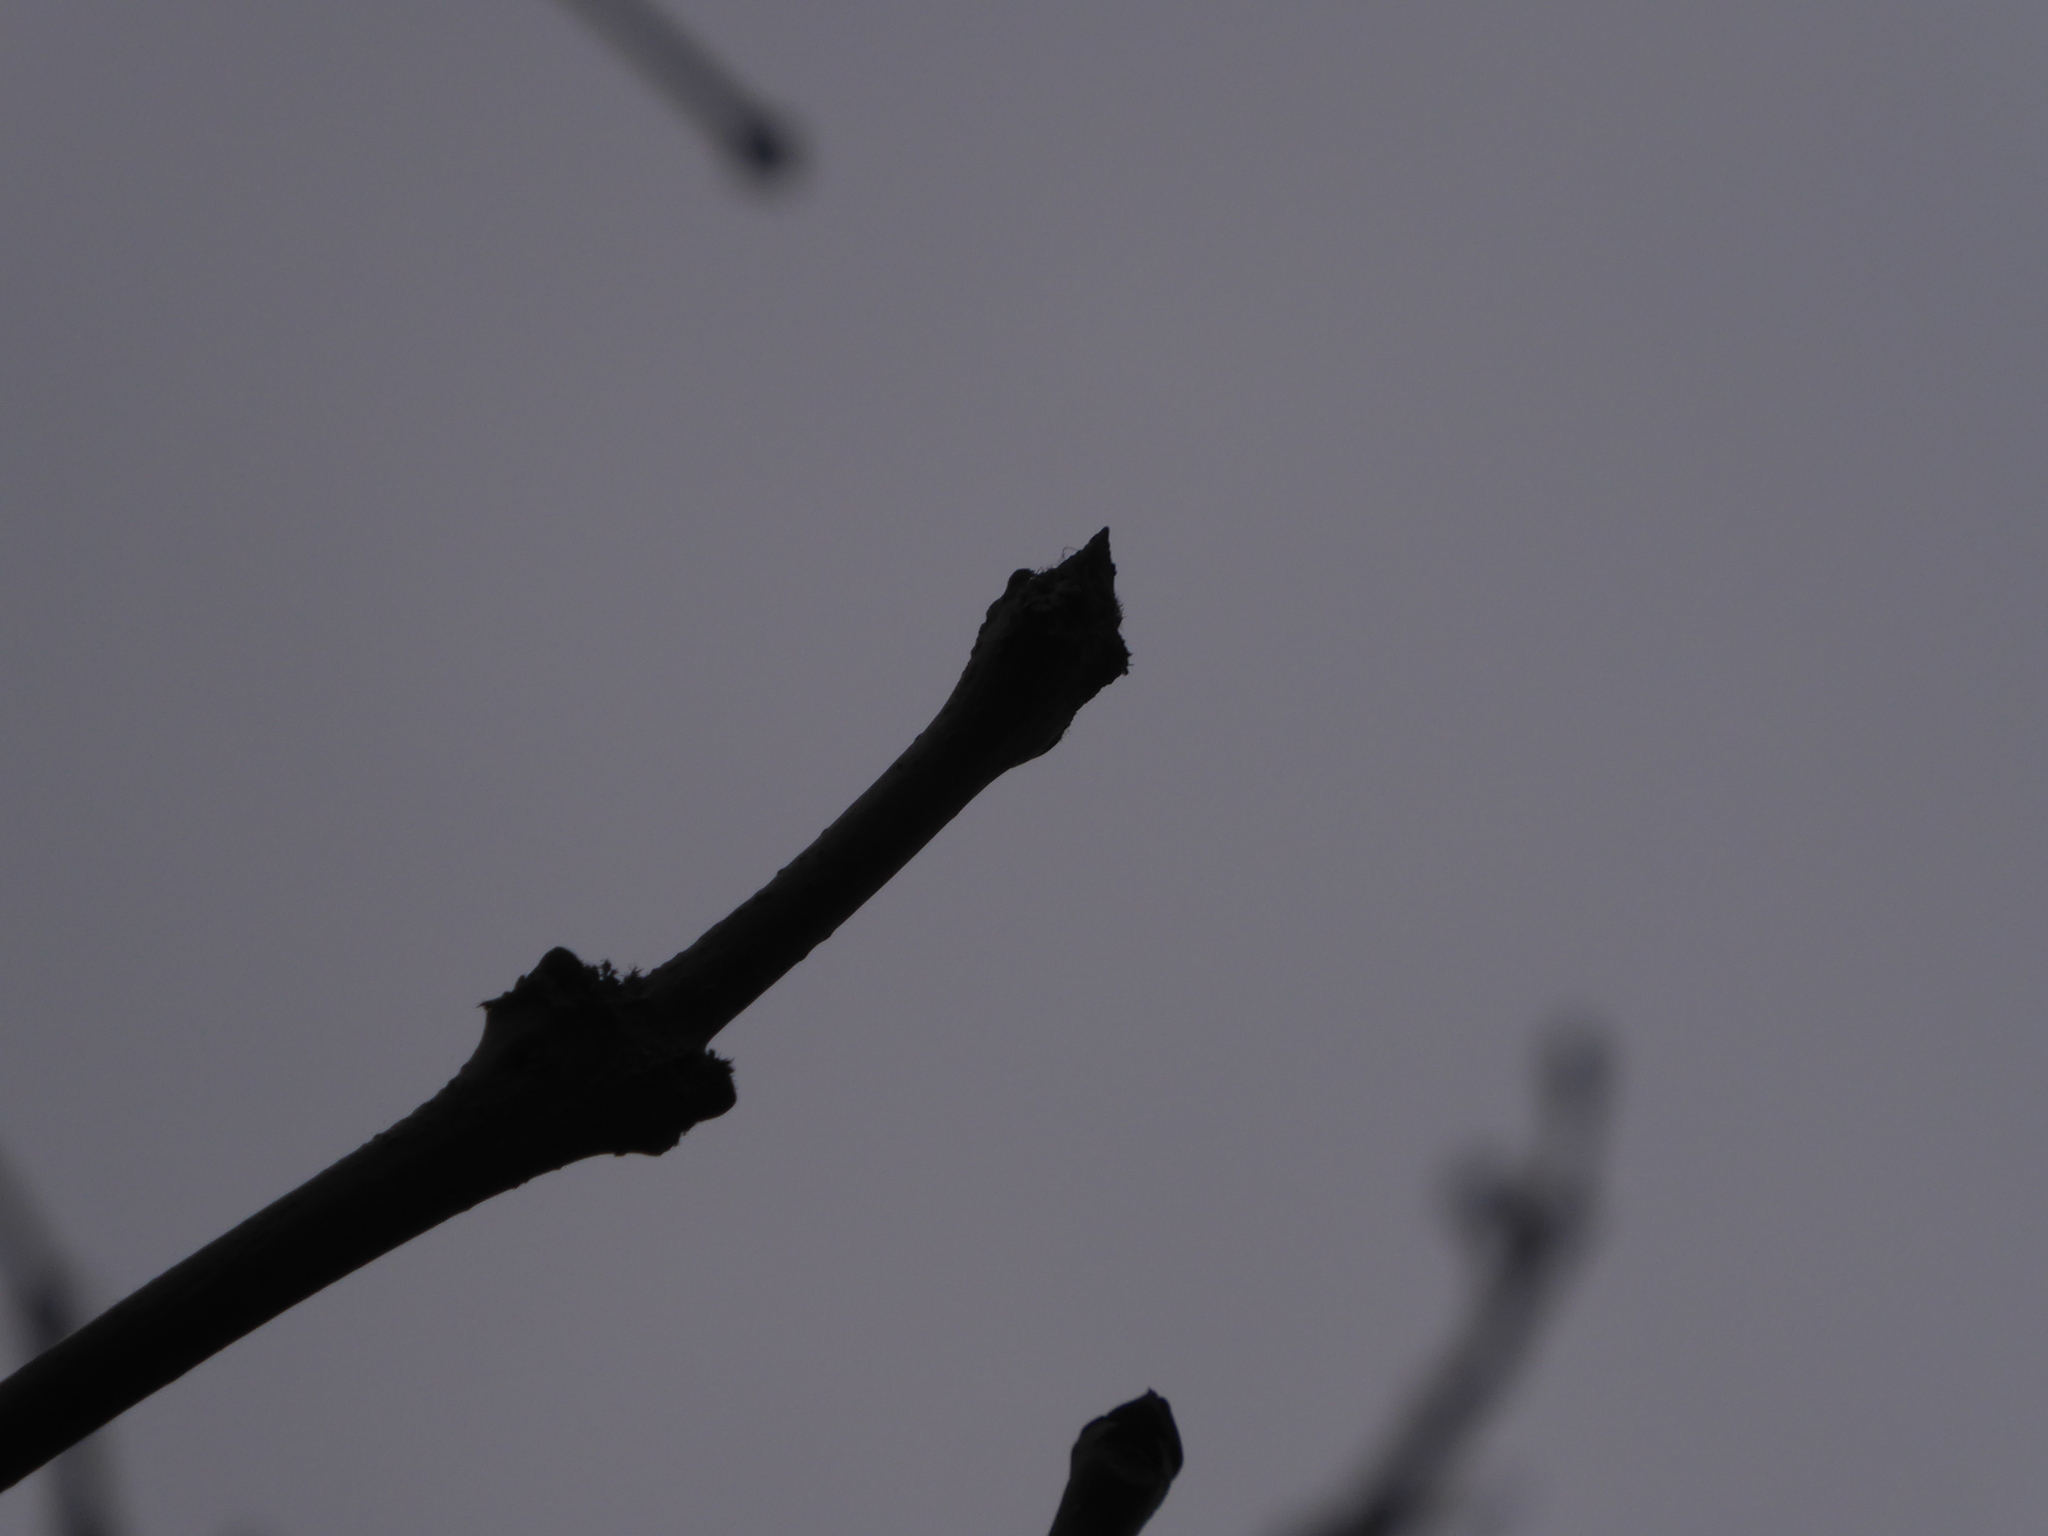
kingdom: Plantae
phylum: Tracheophyta
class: Magnoliopsida
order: Lamiales
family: Oleaceae
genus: Fraxinus
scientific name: Fraxinus excelsior
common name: European ash
